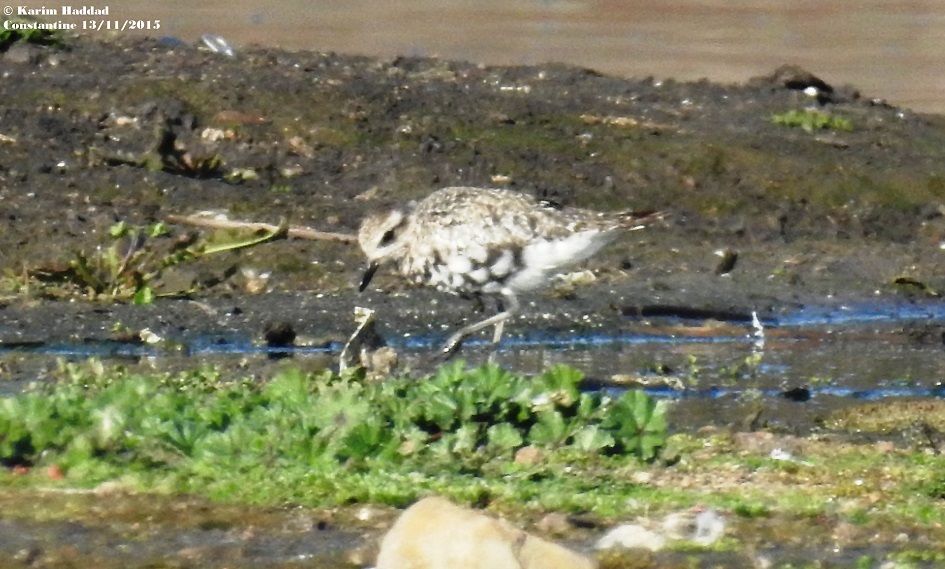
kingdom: Animalia
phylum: Chordata
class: Aves
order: Charadriiformes
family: Charadriidae
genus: Pluvialis
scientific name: Pluvialis squatarola
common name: Grey plover
